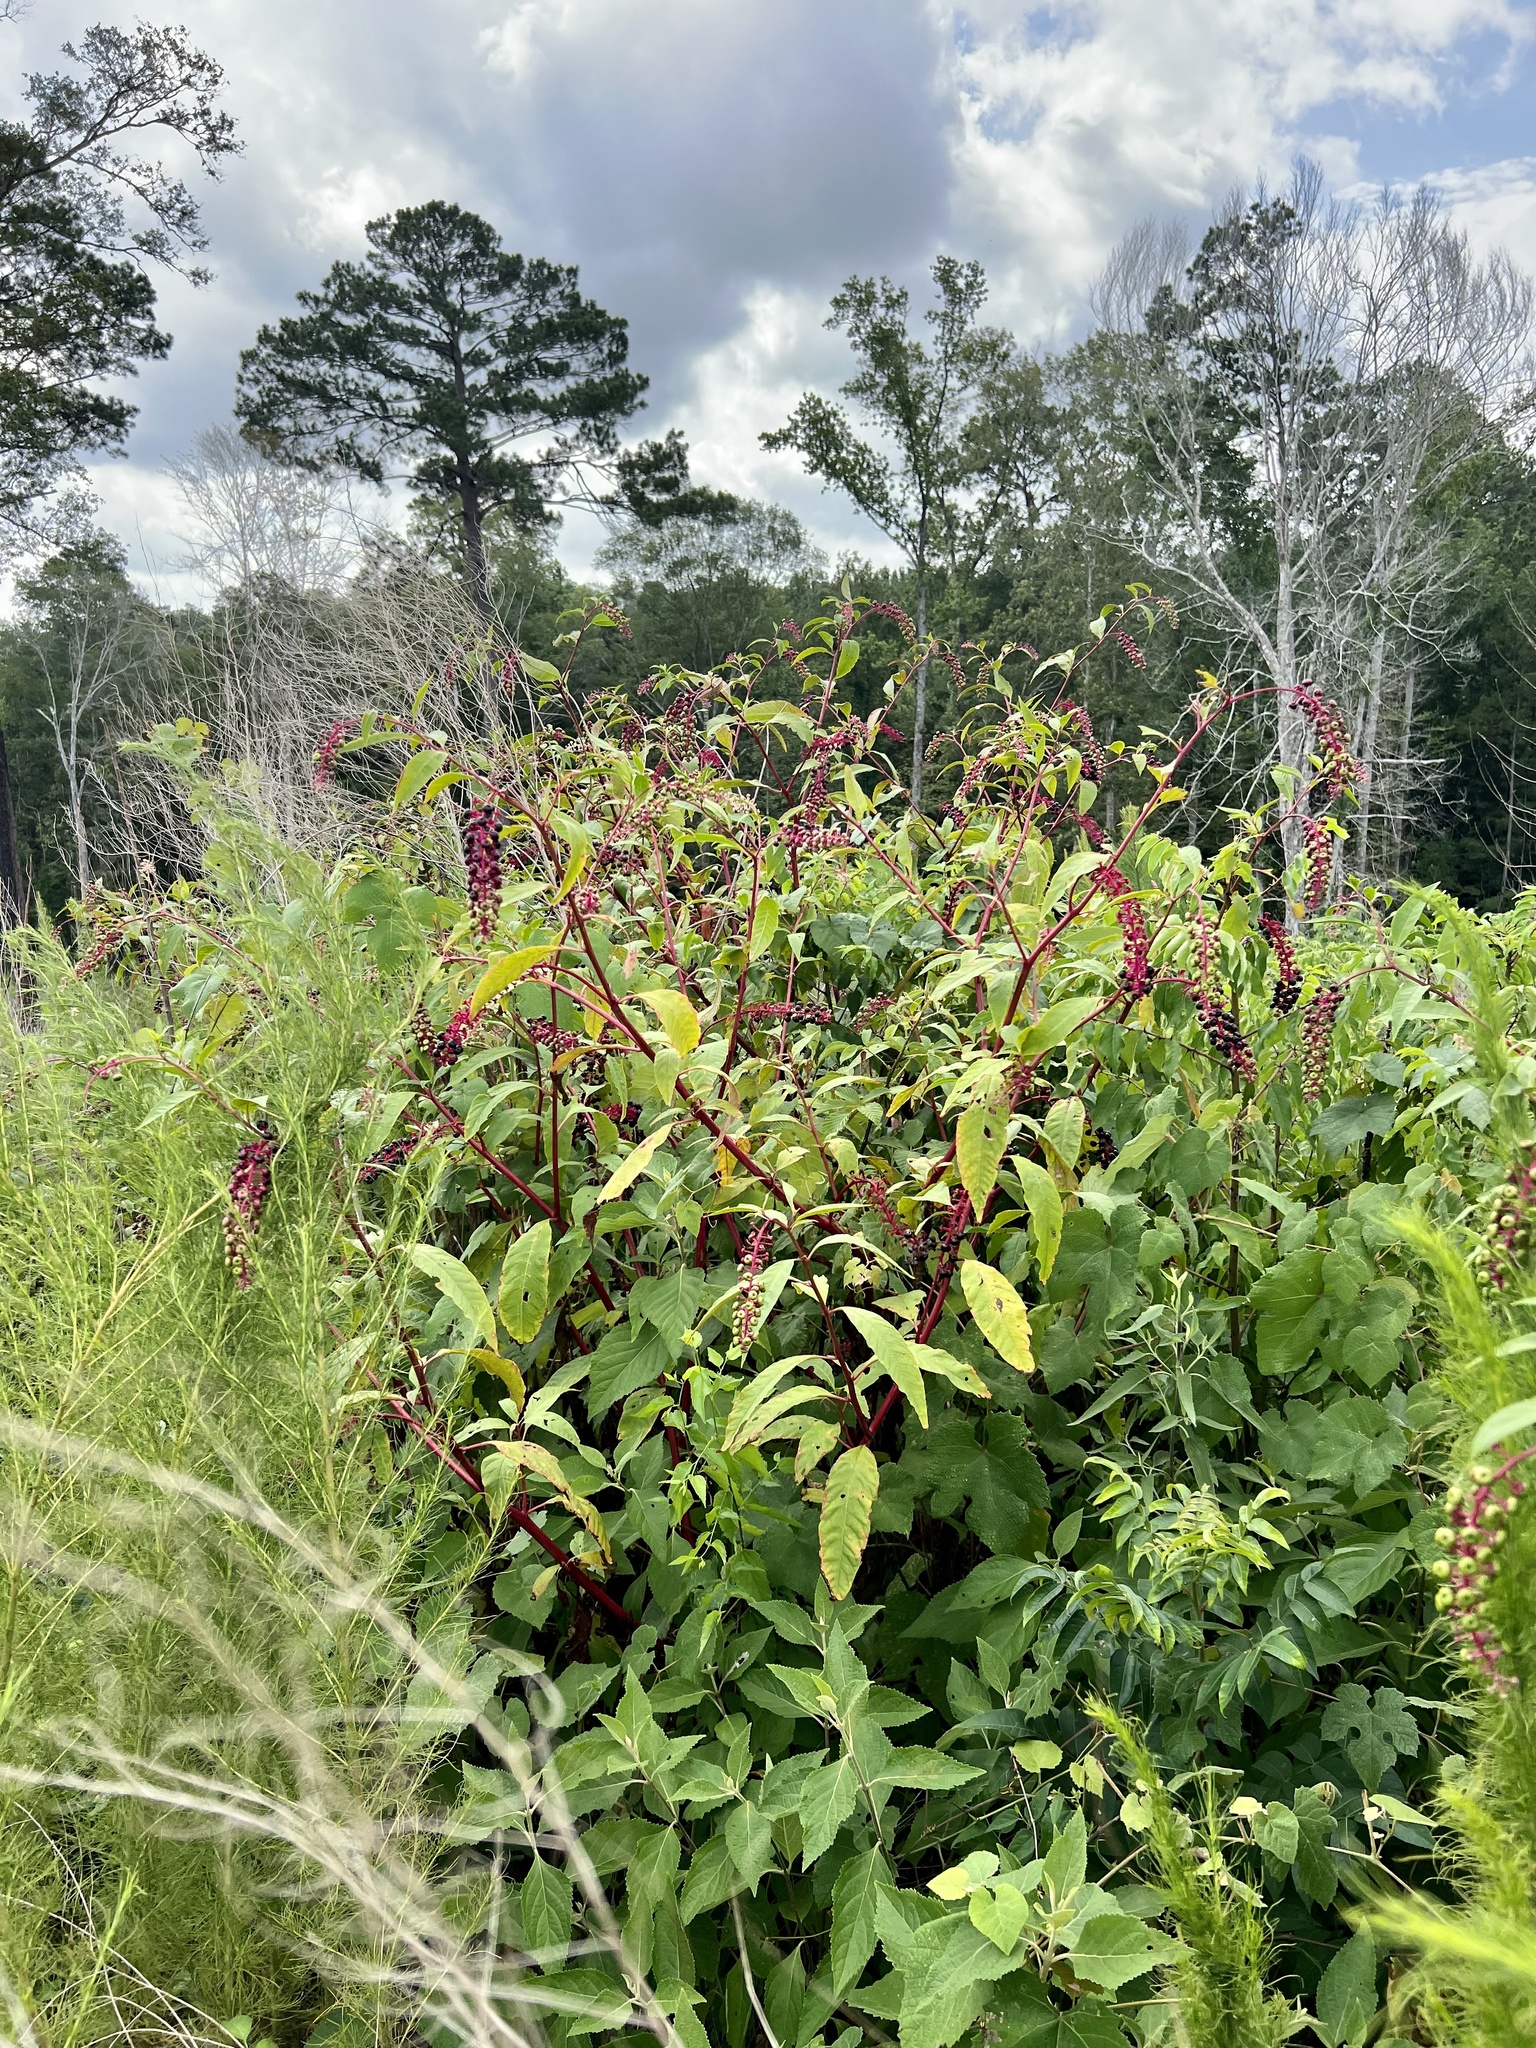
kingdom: Plantae
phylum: Tracheophyta
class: Magnoliopsida
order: Caryophyllales
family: Phytolaccaceae
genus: Phytolacca
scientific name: Phytolacca americana
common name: American pokeweed
